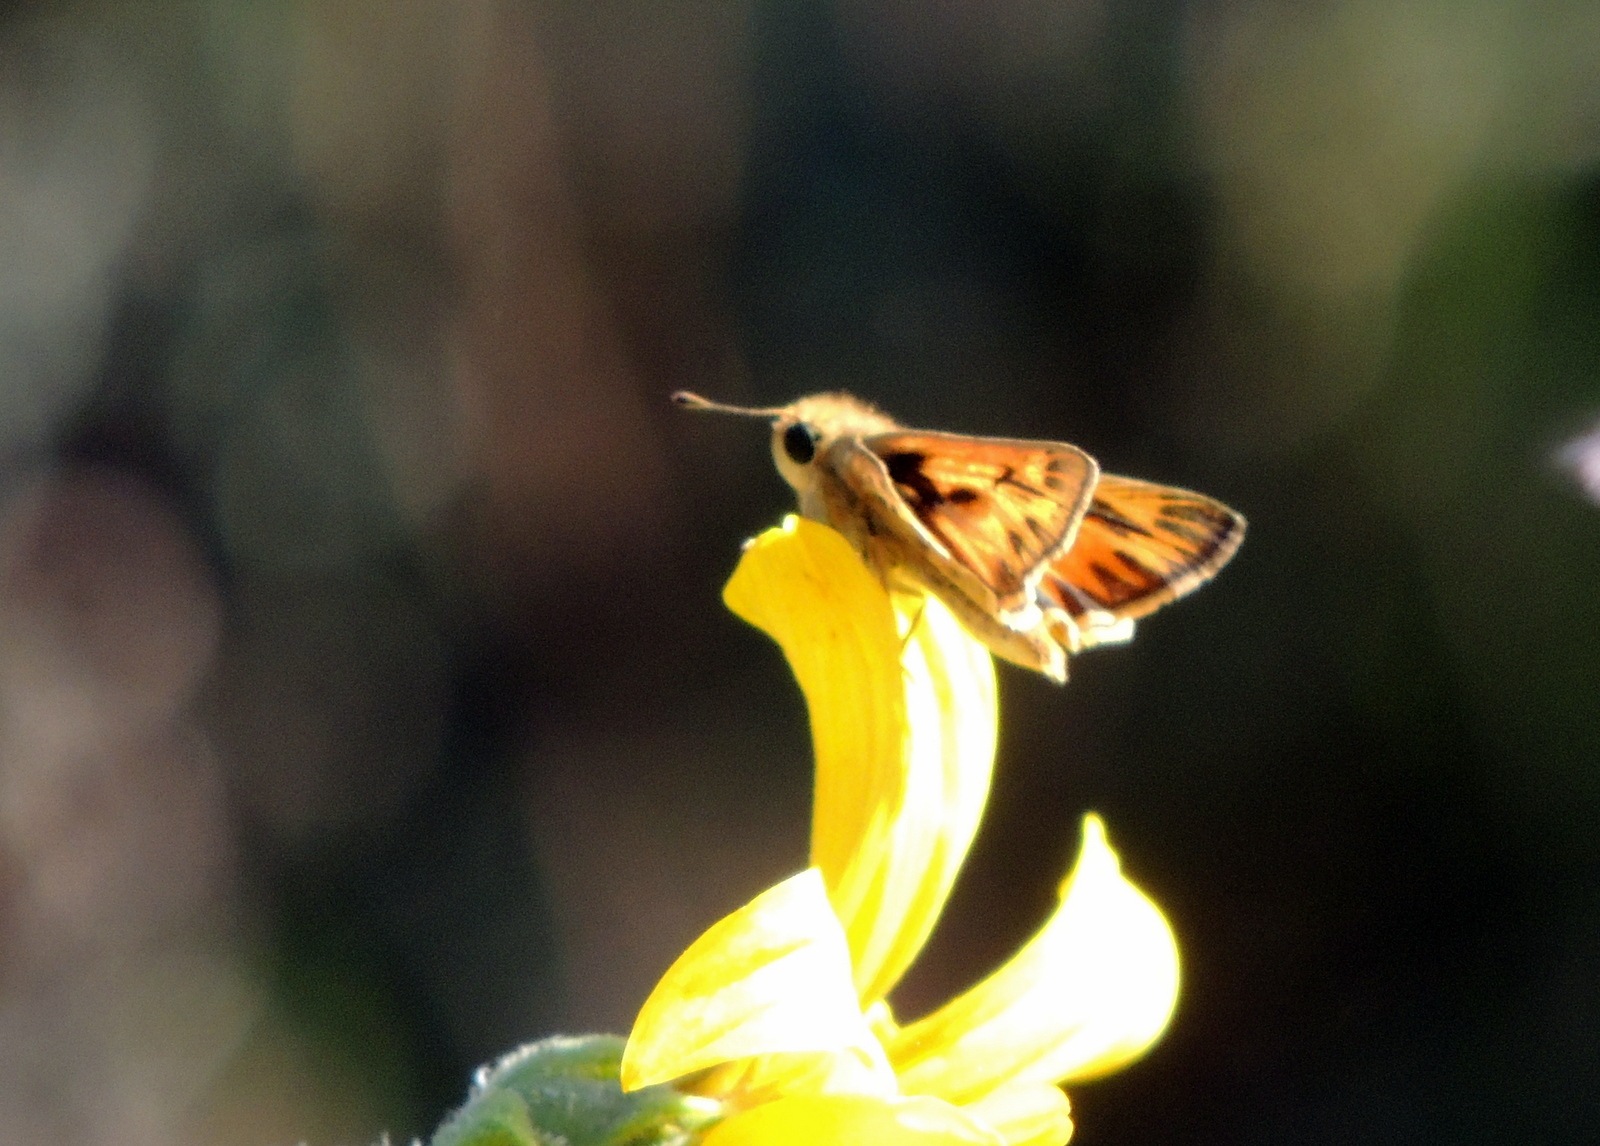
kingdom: Animalia
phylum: Arthropoda
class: Insecta
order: Lepidoptera
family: Hesperiidae
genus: Hylephila
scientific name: Hylephila phyleus
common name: Fiery skipper
